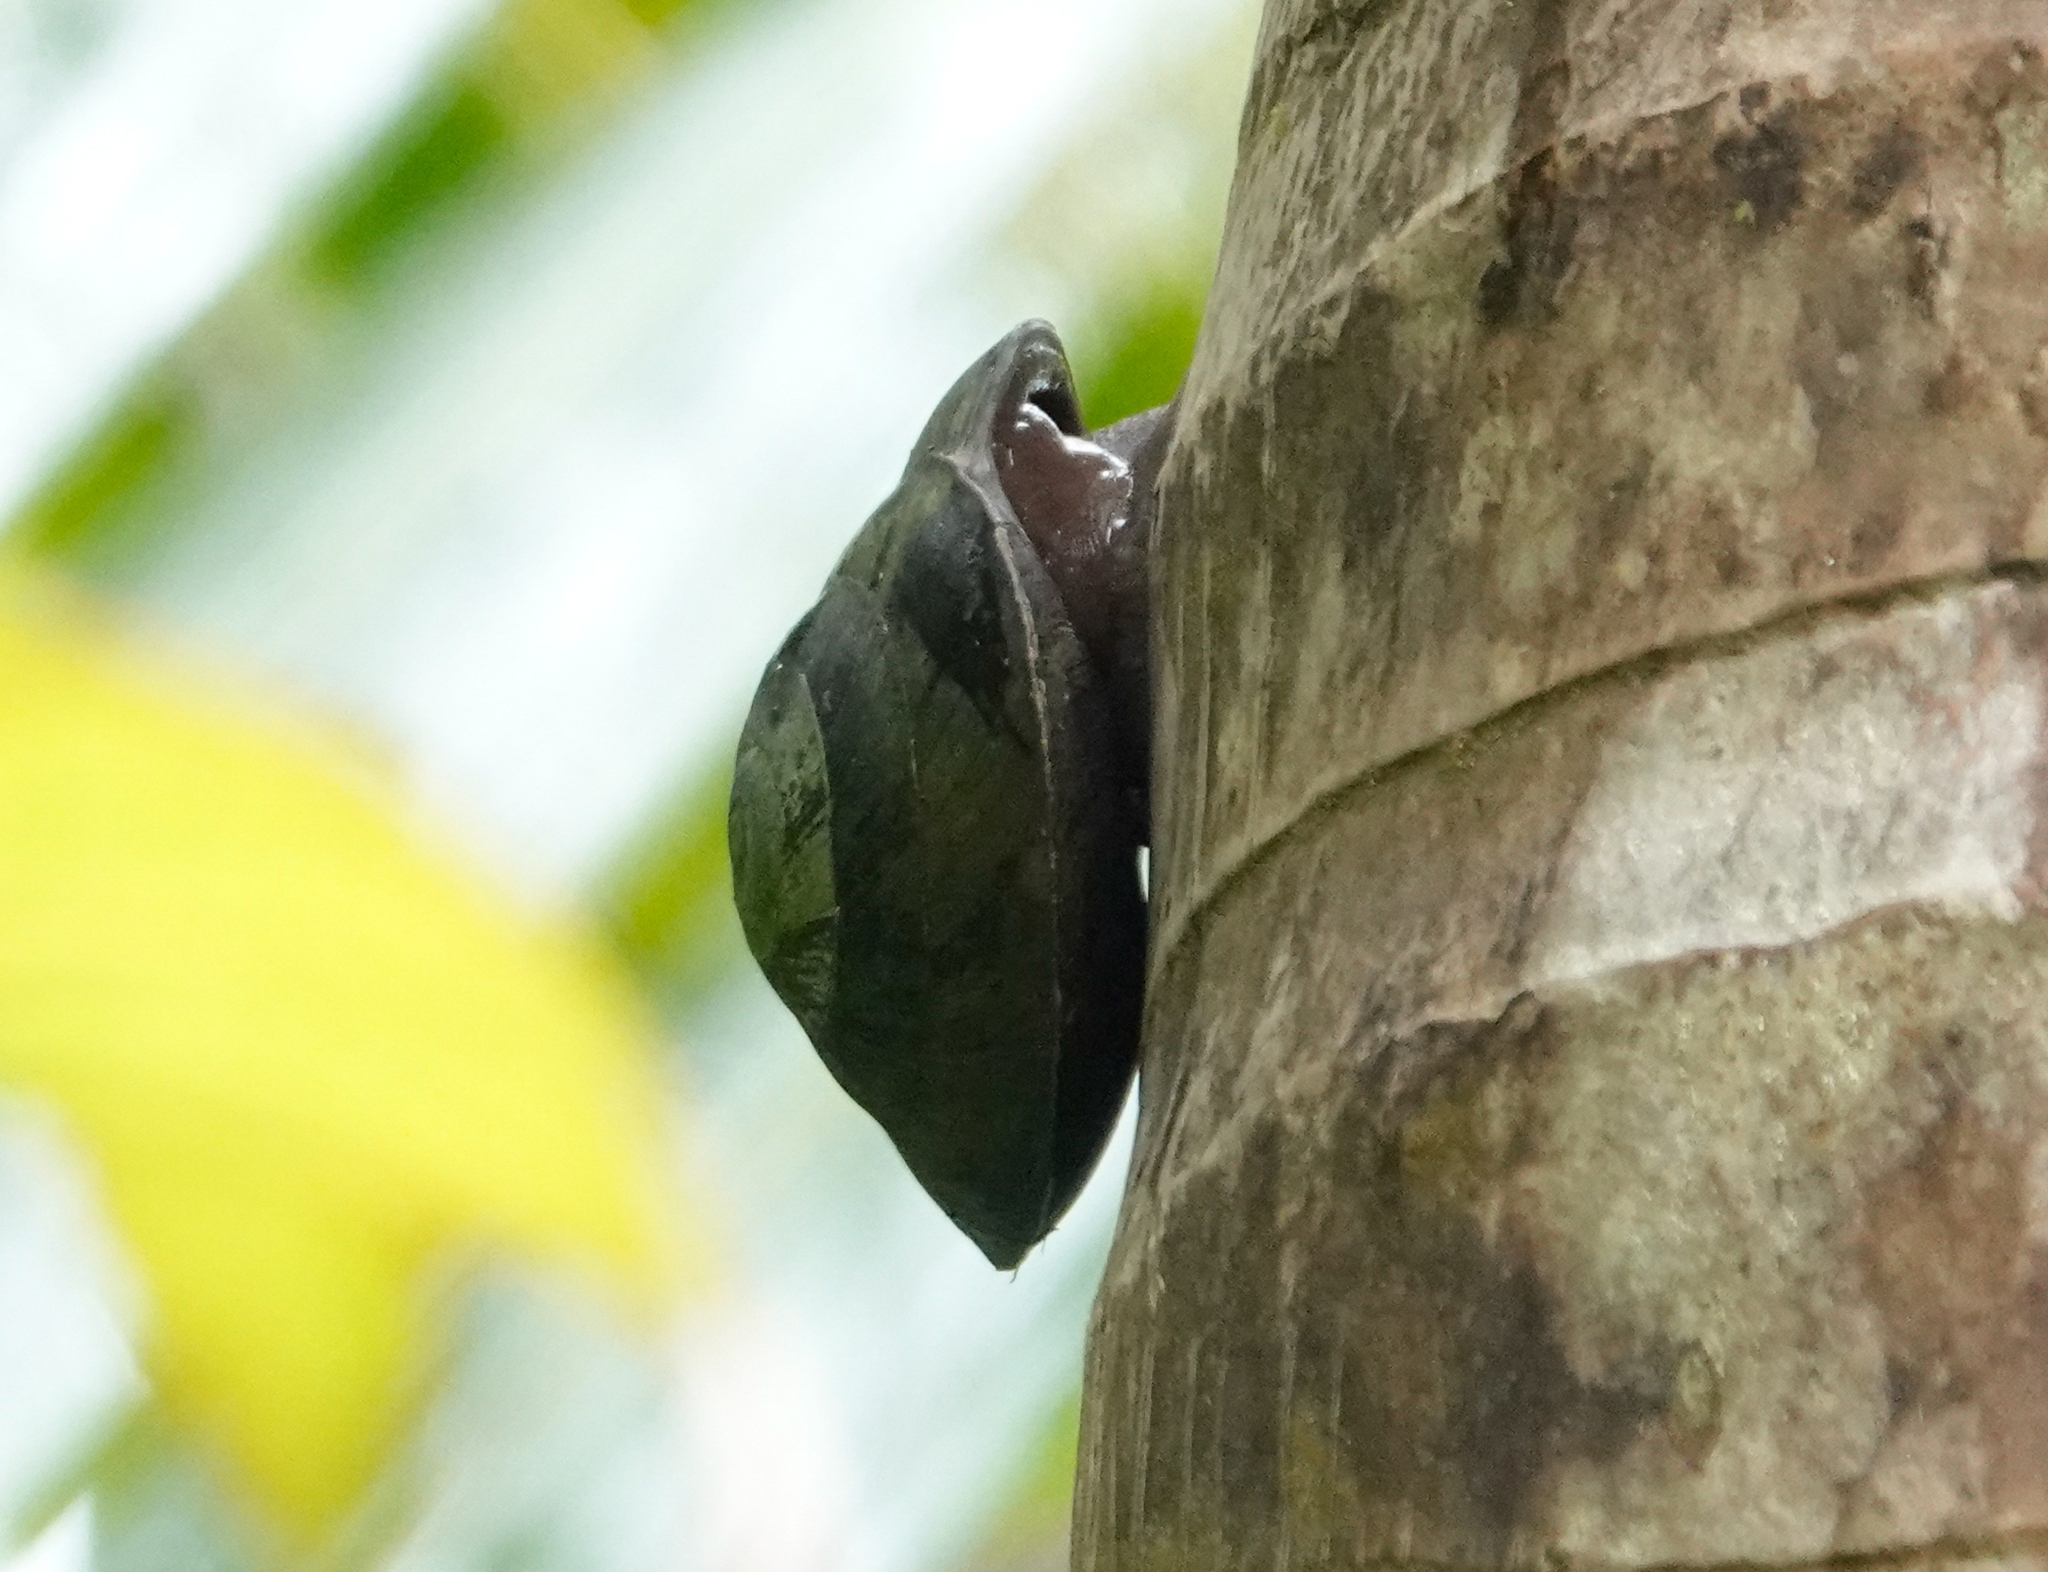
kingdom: Animalia
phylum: Mollusca
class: Gastropoda
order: Stylommatophora
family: Solaropsidae
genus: Caracolus
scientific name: Caracolus carocolla
